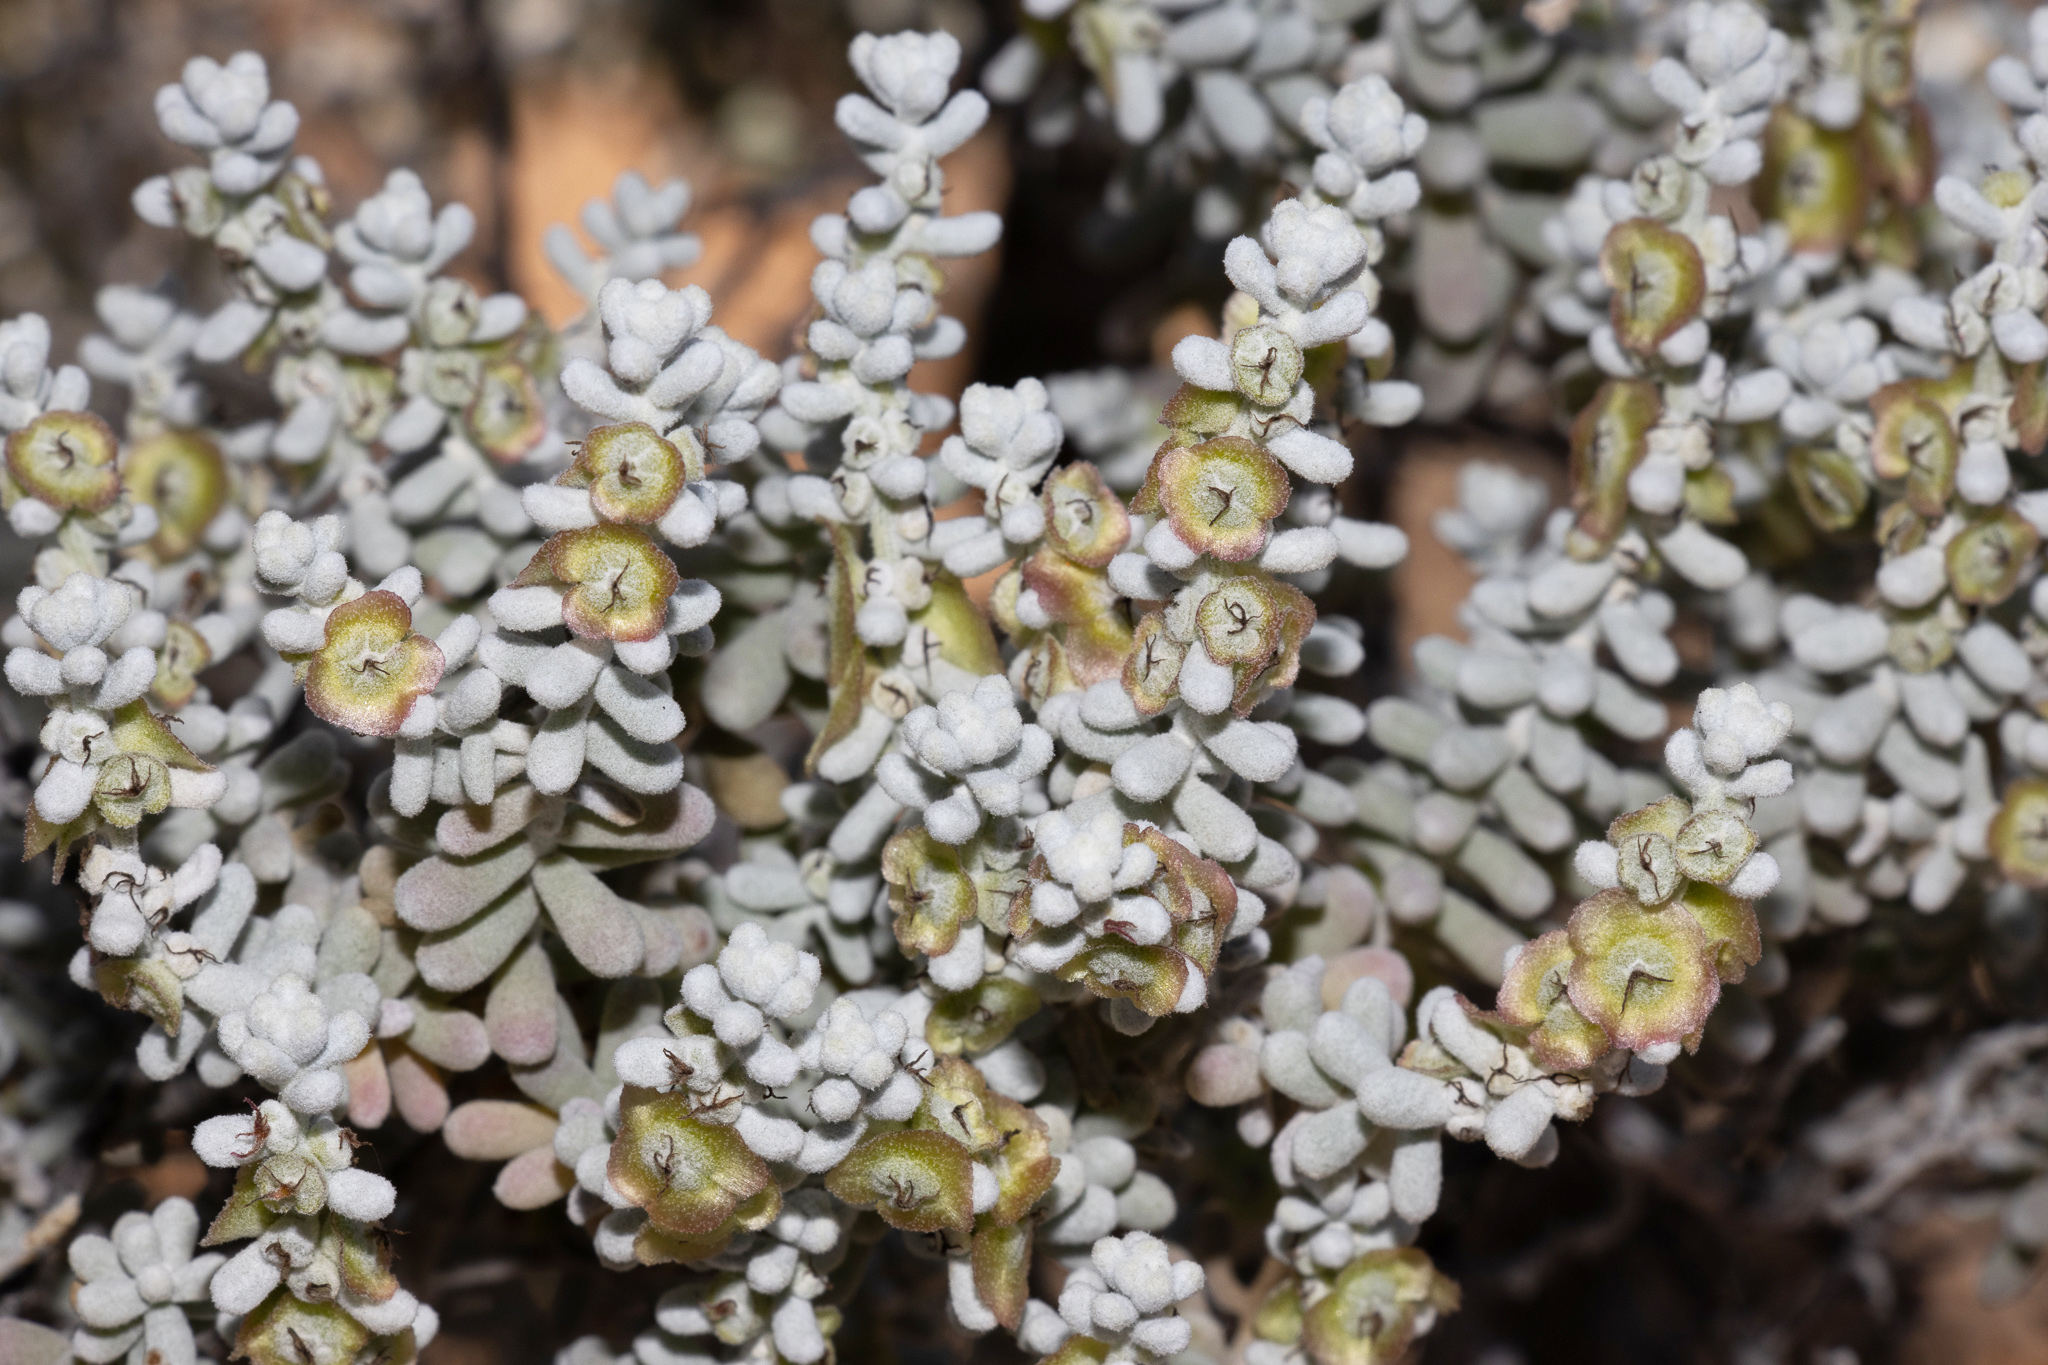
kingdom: Plantae
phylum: Tracheophyta
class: Magnoliopsida
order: Caryophyllales
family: Amaranthaceae
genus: Maireana
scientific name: Maireana sedifolia
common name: Hoary bluebush
